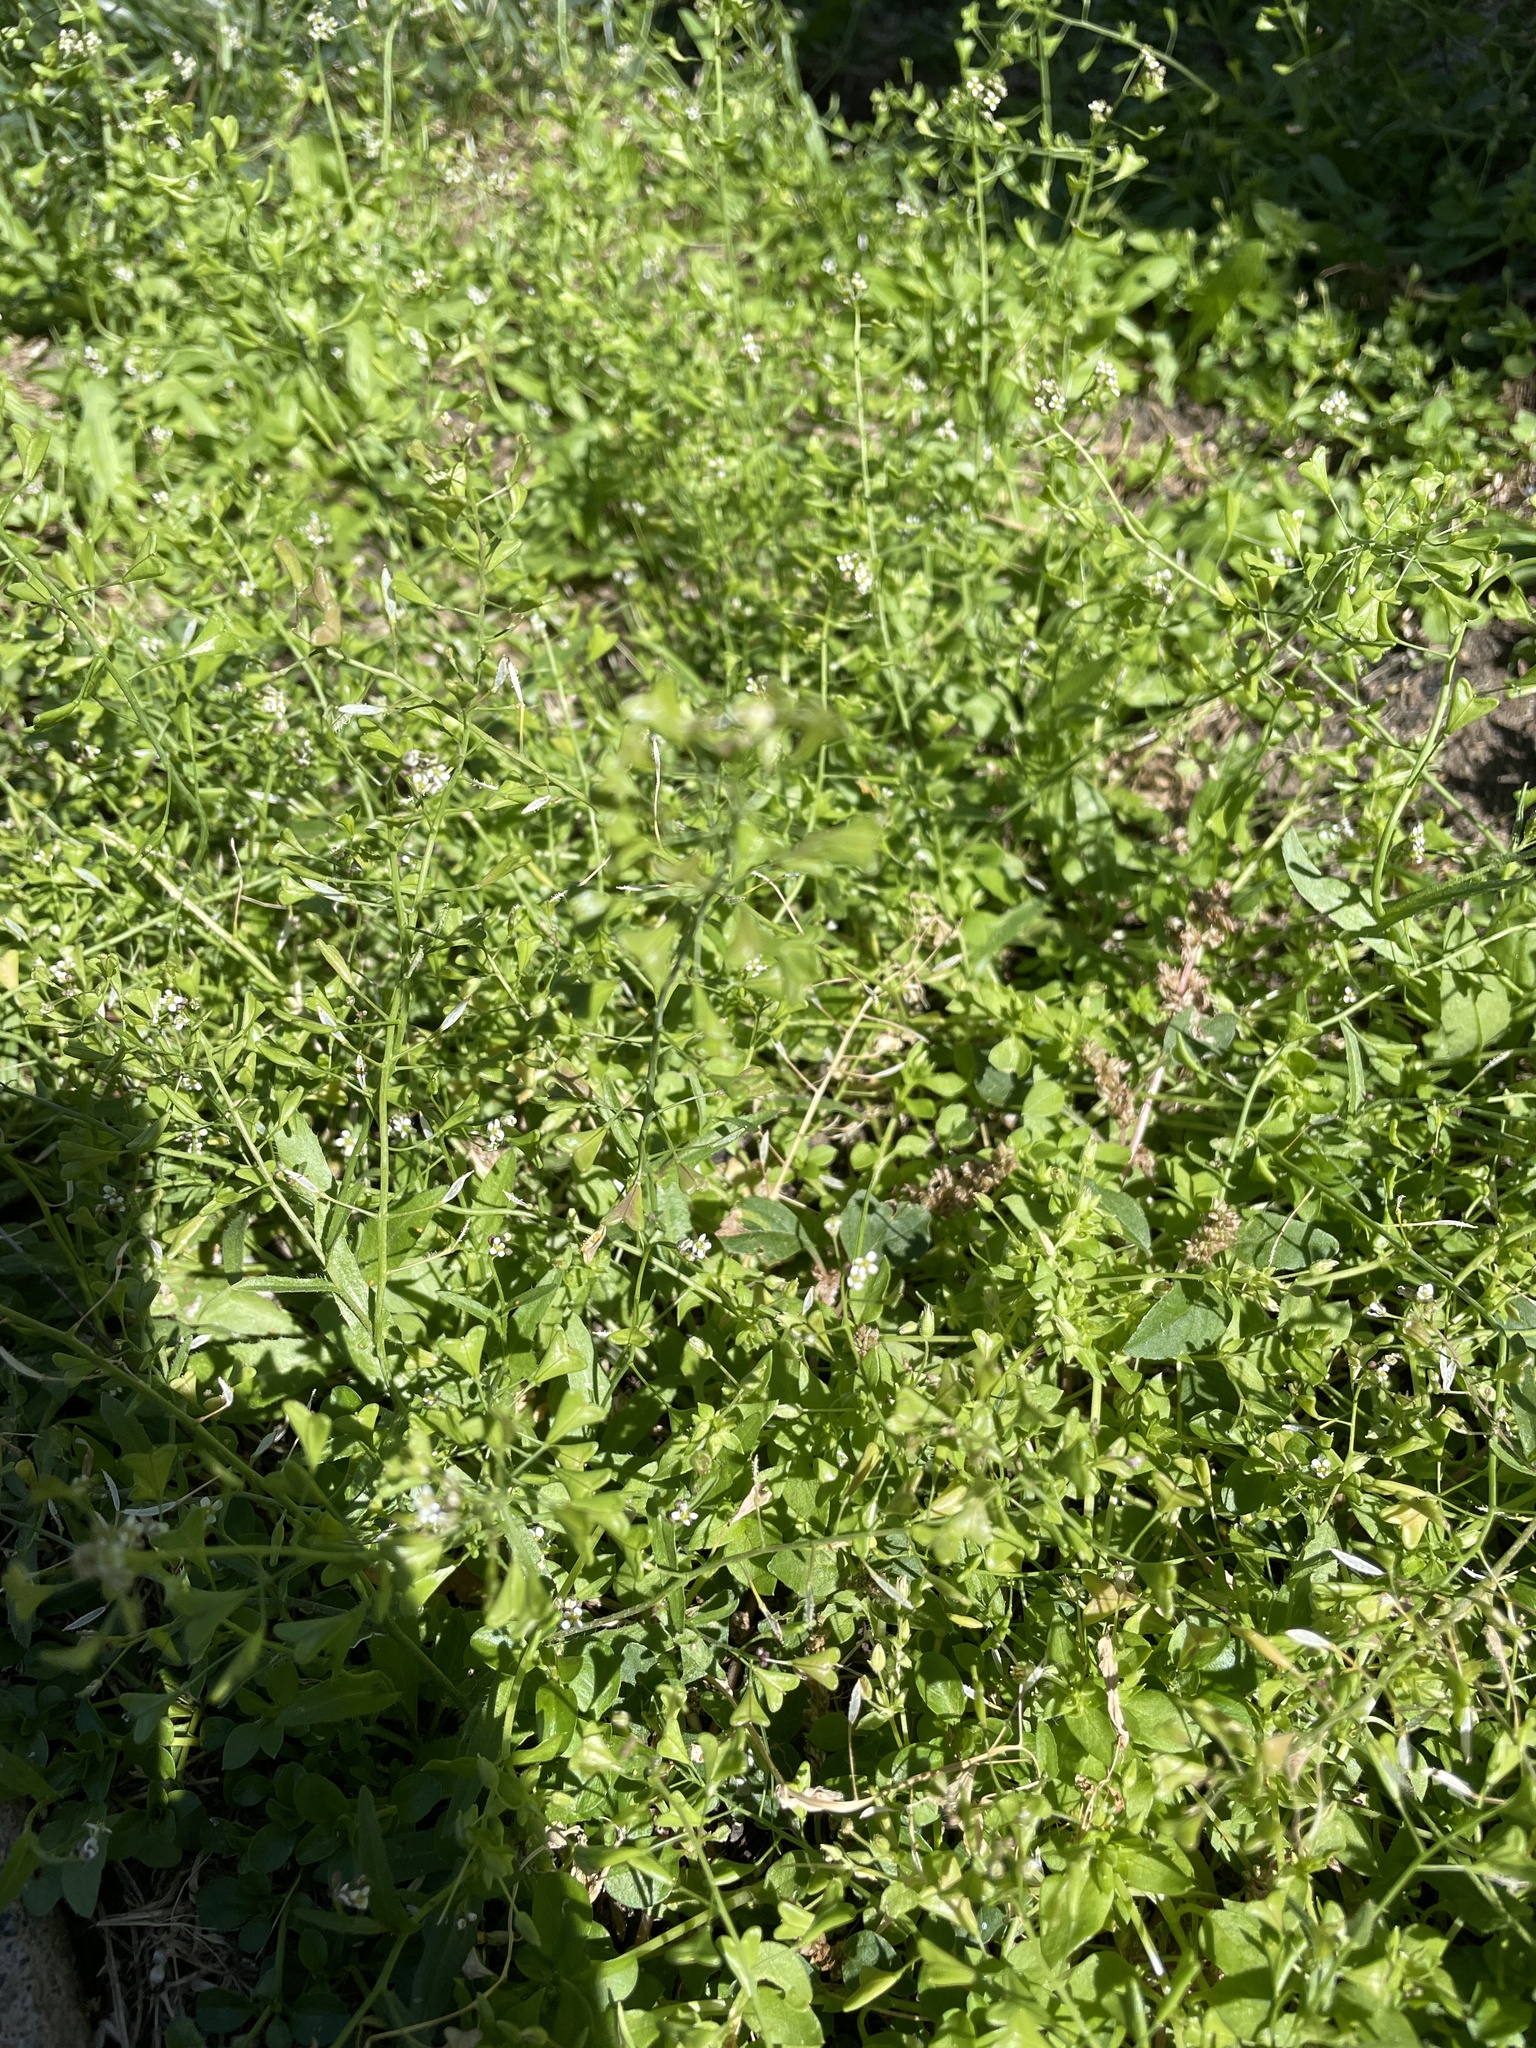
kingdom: Plantae
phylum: Tracheophyta
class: Magnoliopsida
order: Brassicales
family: Brassicaceae
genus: Capsella
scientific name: Capsella bursa-pastoris
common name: Shepherd's purse
